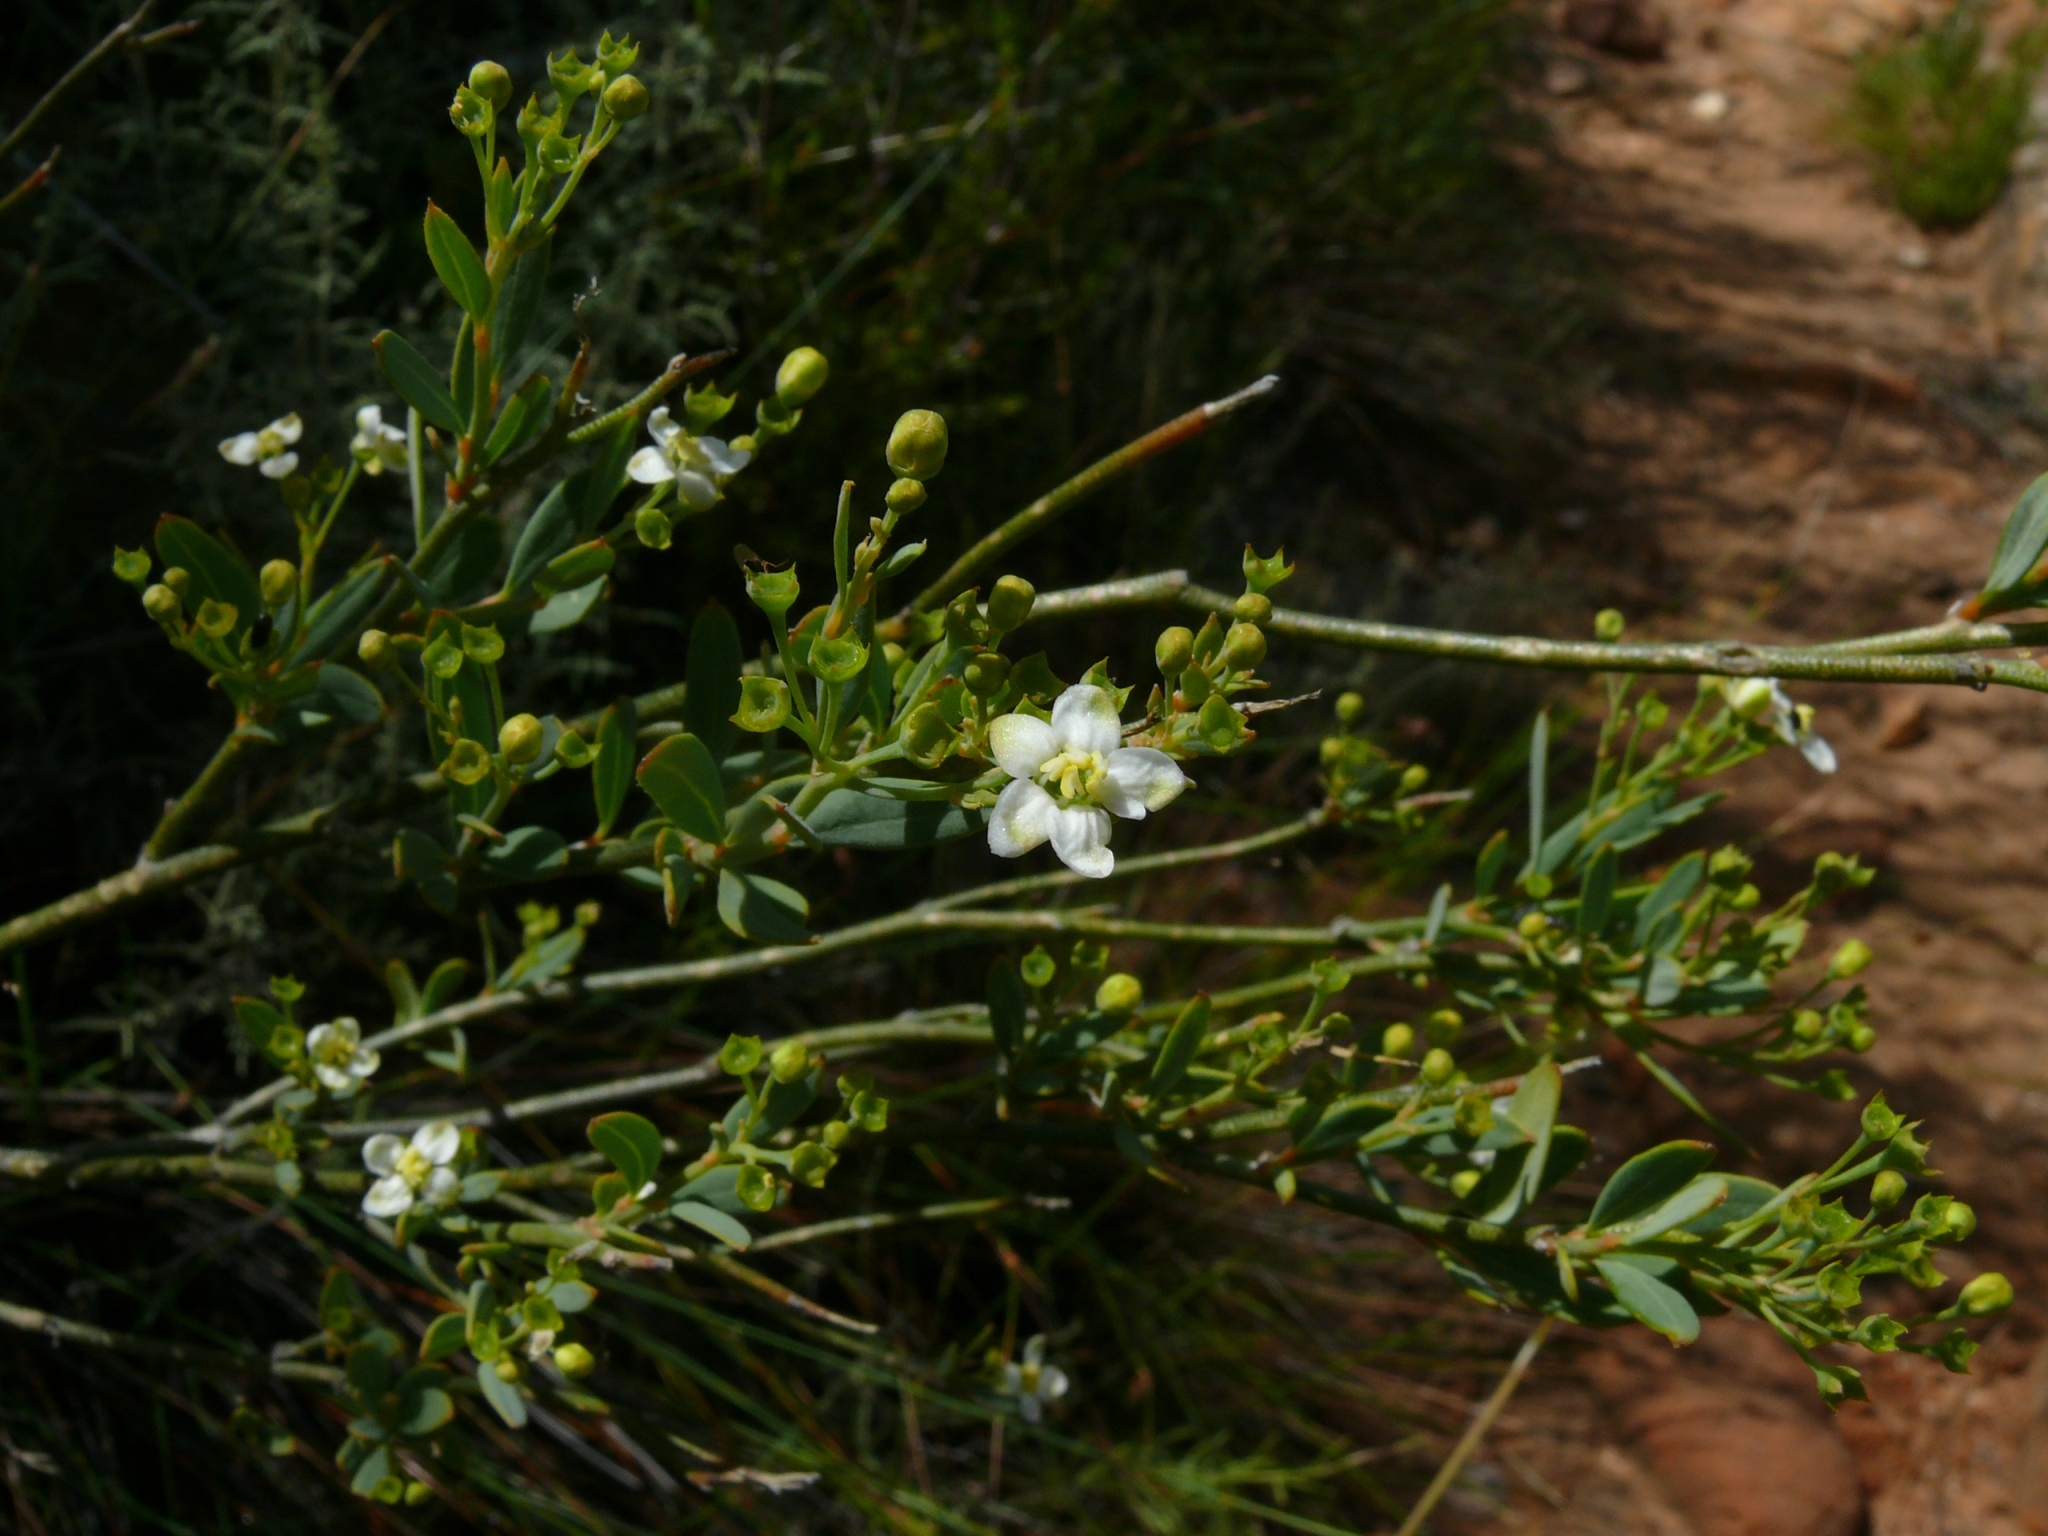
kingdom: Plantae
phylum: Tracheophyta
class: Magnoliopsida
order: Solanales
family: Montiniaceae
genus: Montinia
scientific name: Montinia caryophyllacea
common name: Wild clove-bush
